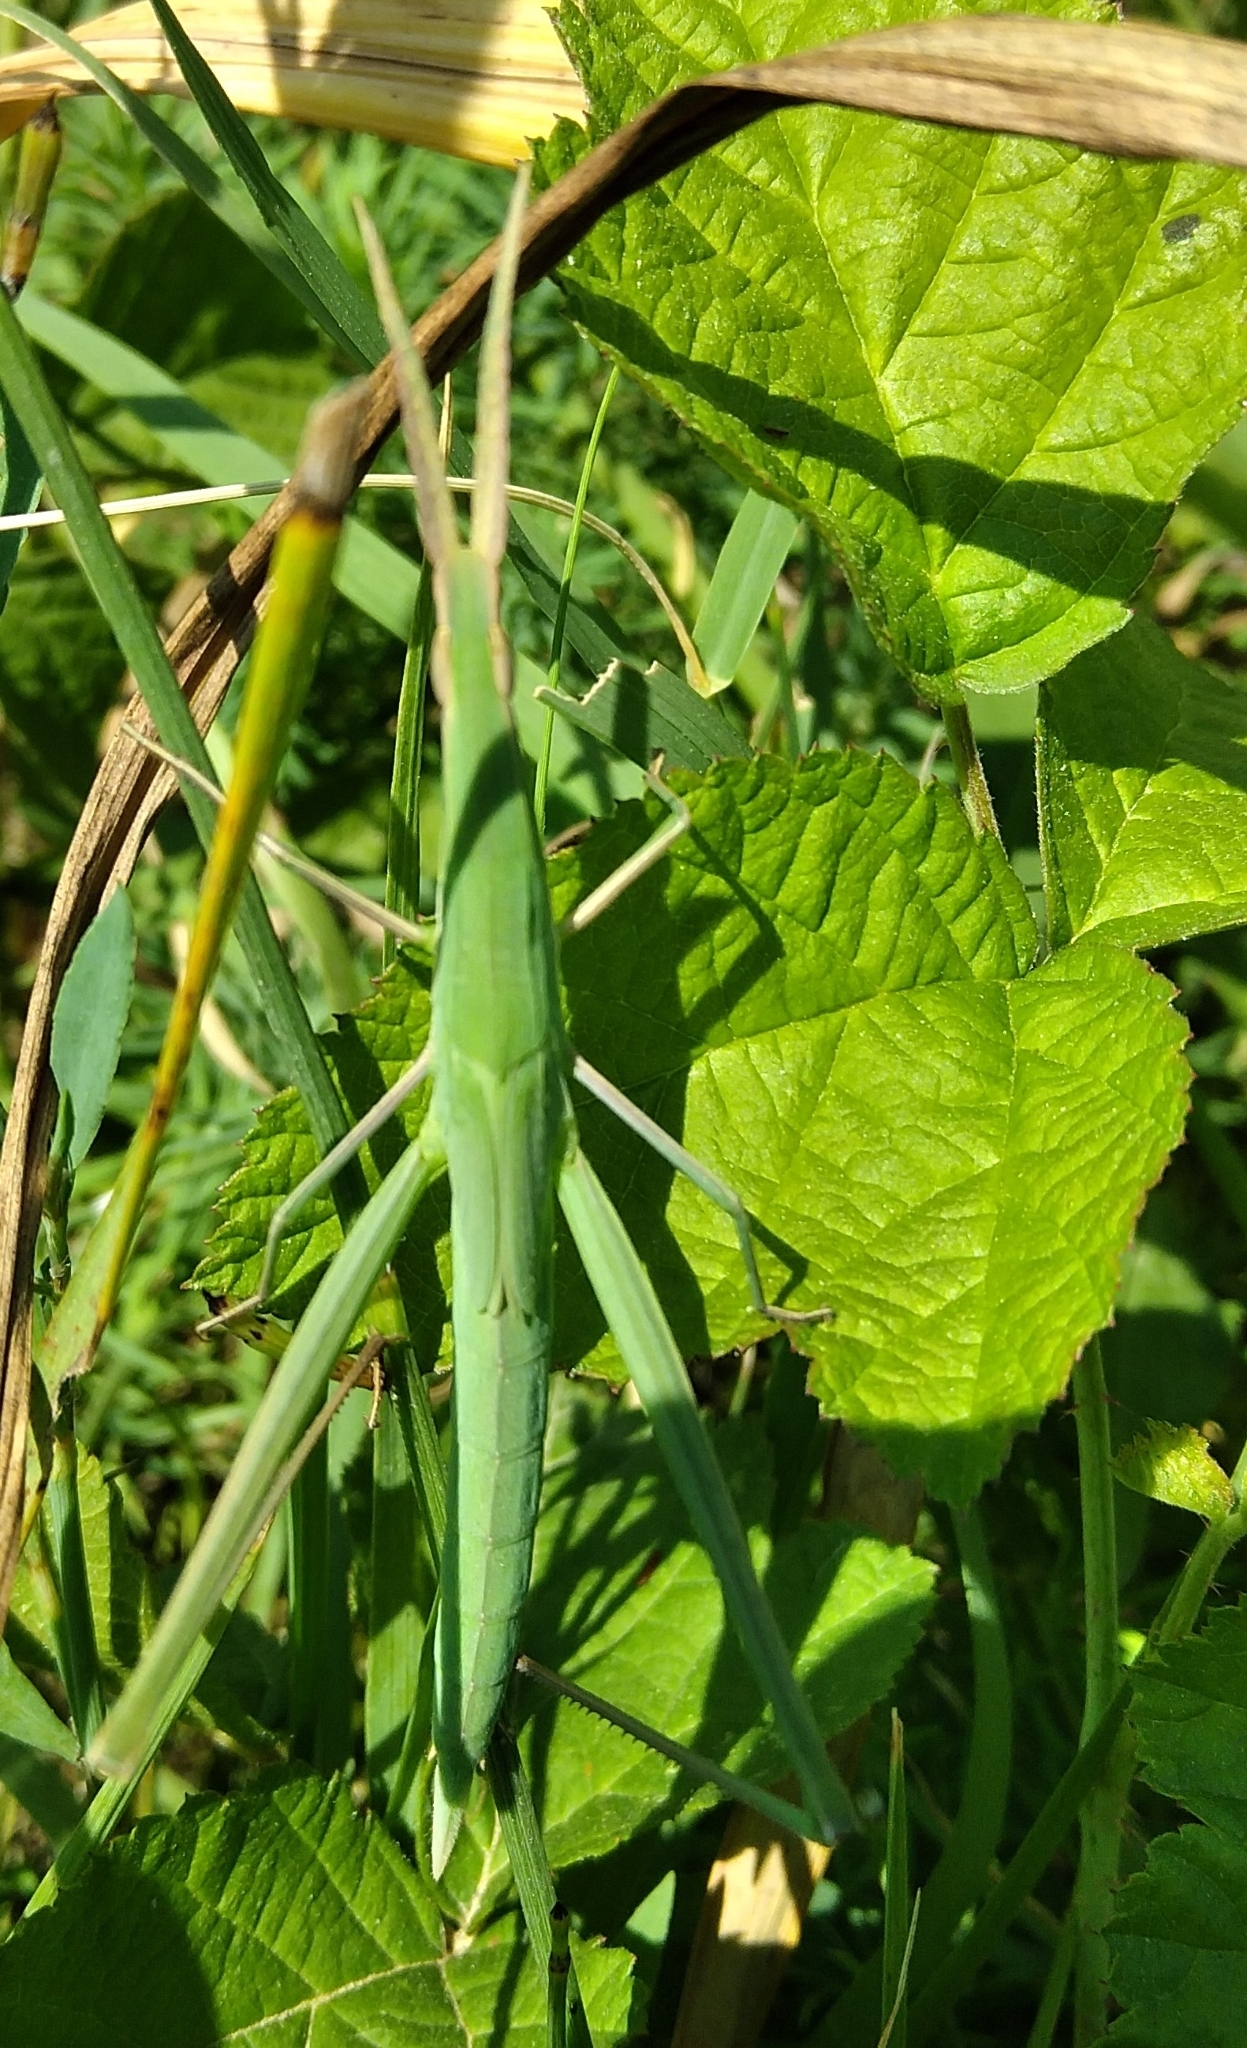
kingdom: Animalia
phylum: Arthropoda
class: Insecta
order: Orthoptera
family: Acrididae
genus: Acrida
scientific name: Acrida ungarica
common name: Common cone-headed grasshopper
